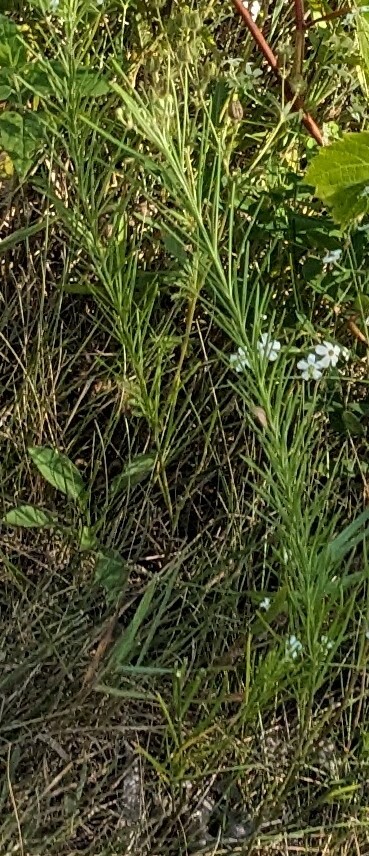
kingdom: Plantae
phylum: Tracheophyta
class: Magnoliopsida
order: Gentianales
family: Apocynaceae
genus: Asclepias
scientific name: Asclepias verticillata
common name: Eastern whorled milkweed
